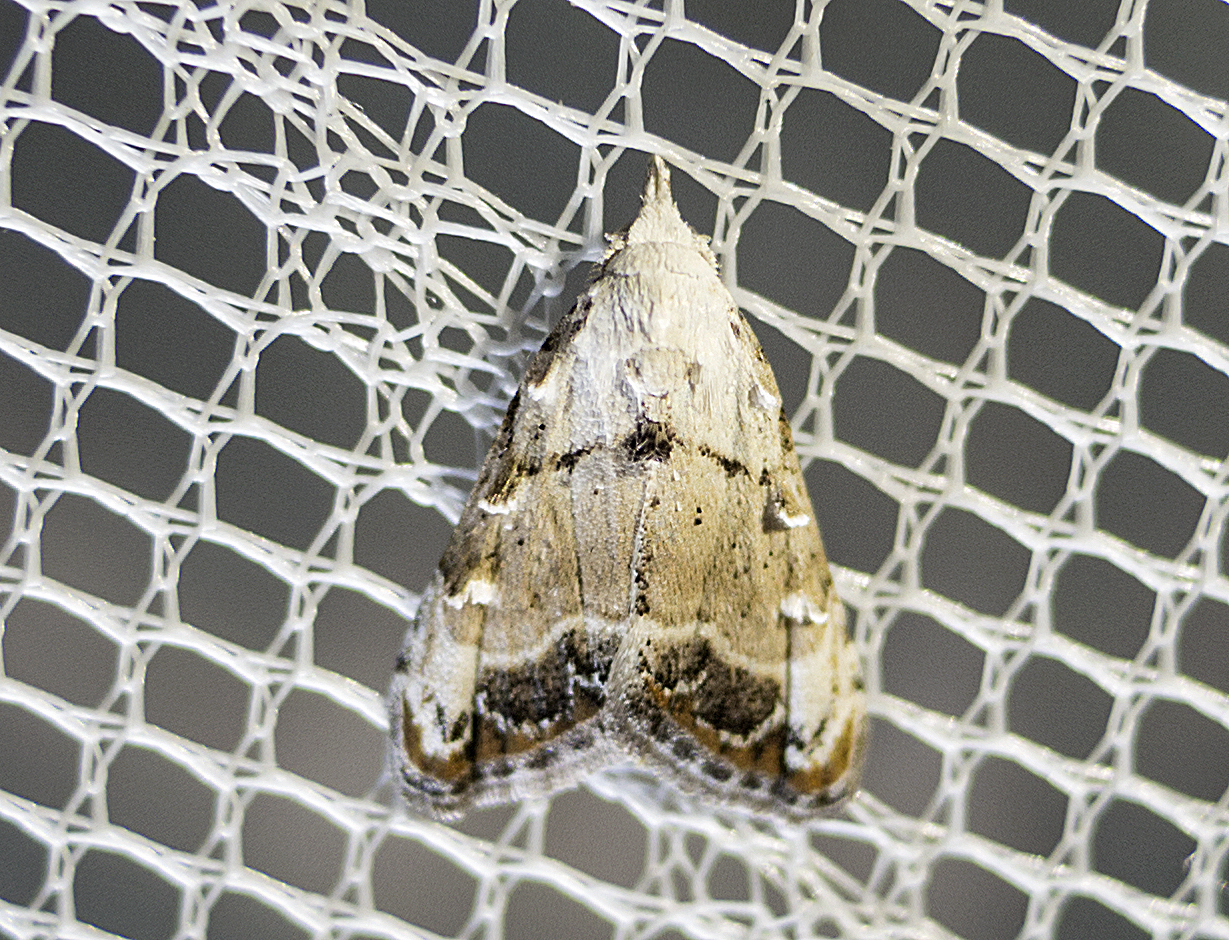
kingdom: Animalia
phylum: Arthropoda
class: Insecta
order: Lepidoptera
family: Nolidae
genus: Nola
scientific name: Nola chlamitulalis
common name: Jersey black arches
